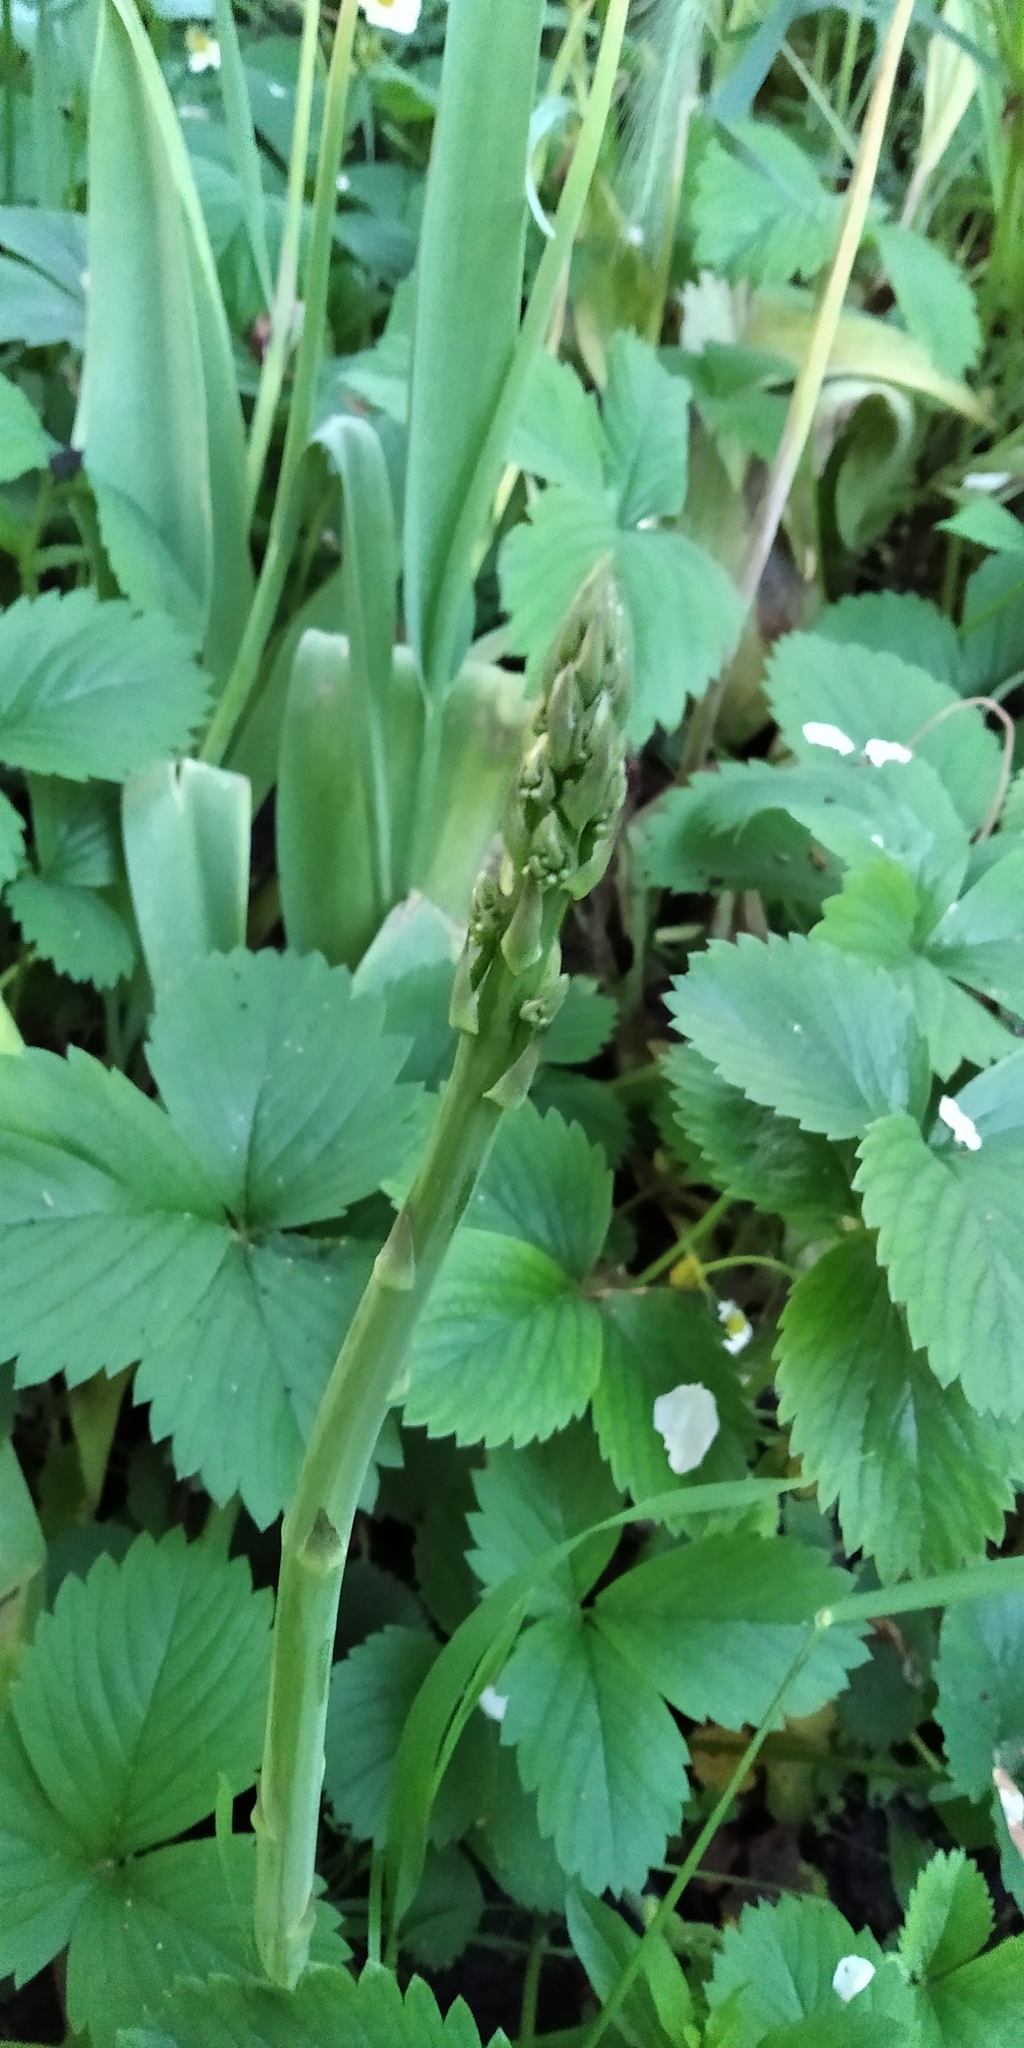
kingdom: Plantae
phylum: Tracheophyta
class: Liliopsida
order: Asparagales
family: Asparagaceae
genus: Asparagus
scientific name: Asparagus officinalis
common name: Garden asparagus
